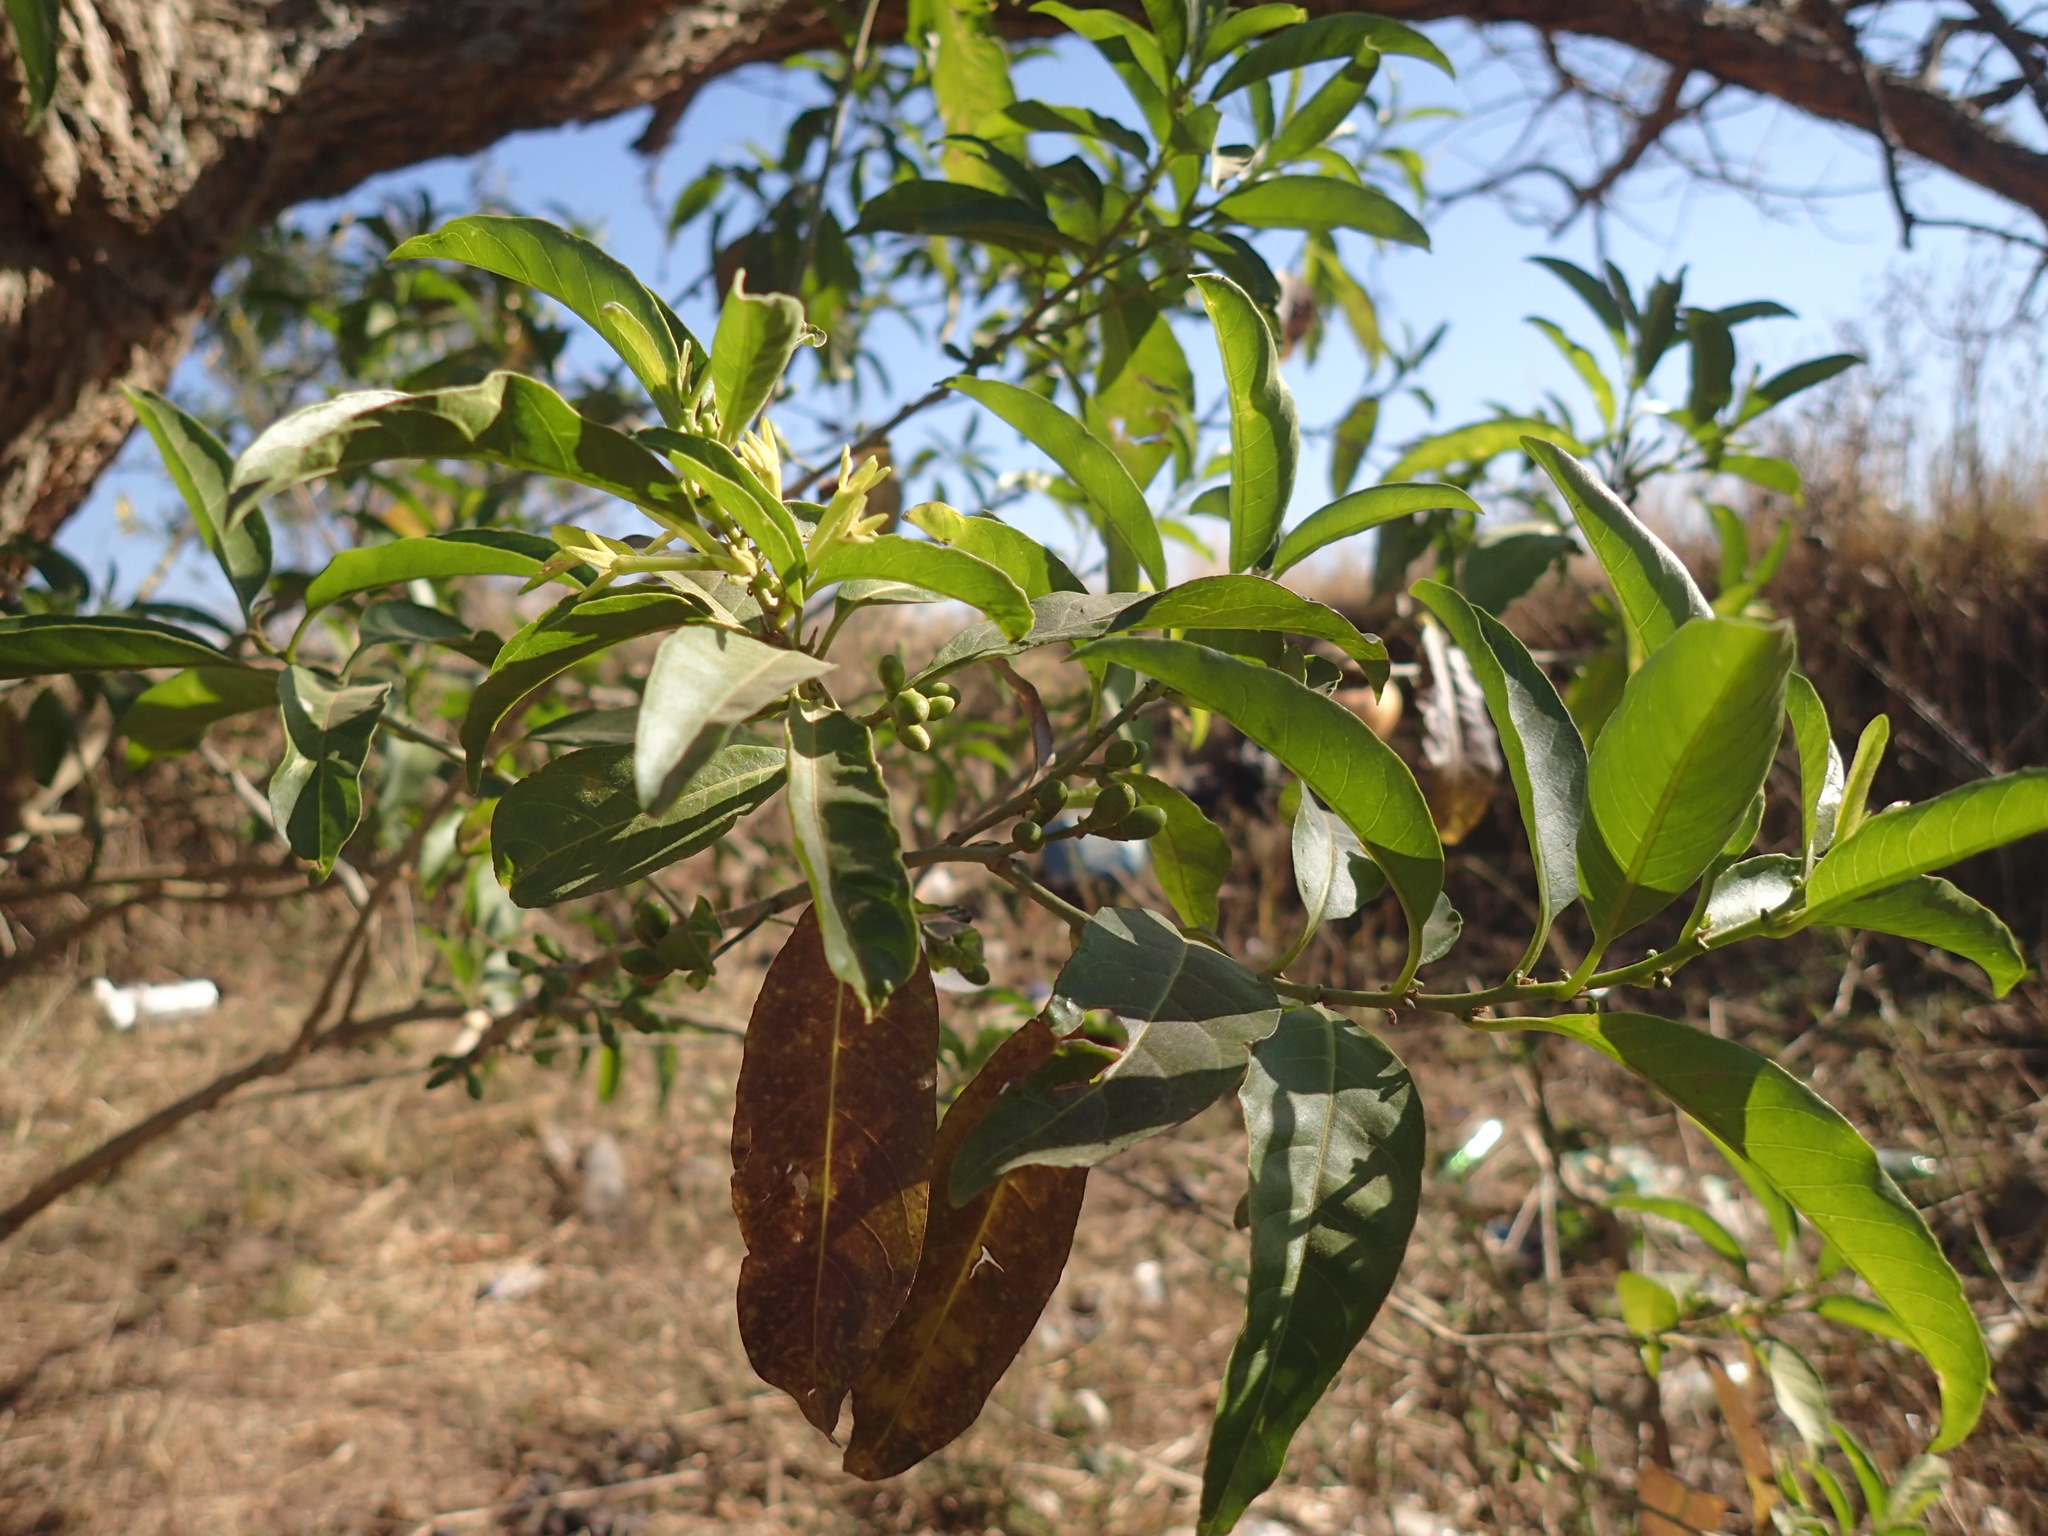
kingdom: Plantae
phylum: Tracheophyta
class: Magnoliopsida
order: Solanales
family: Solanaceae
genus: Cestrum
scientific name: Cestrum laevigatum
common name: Inkberry
